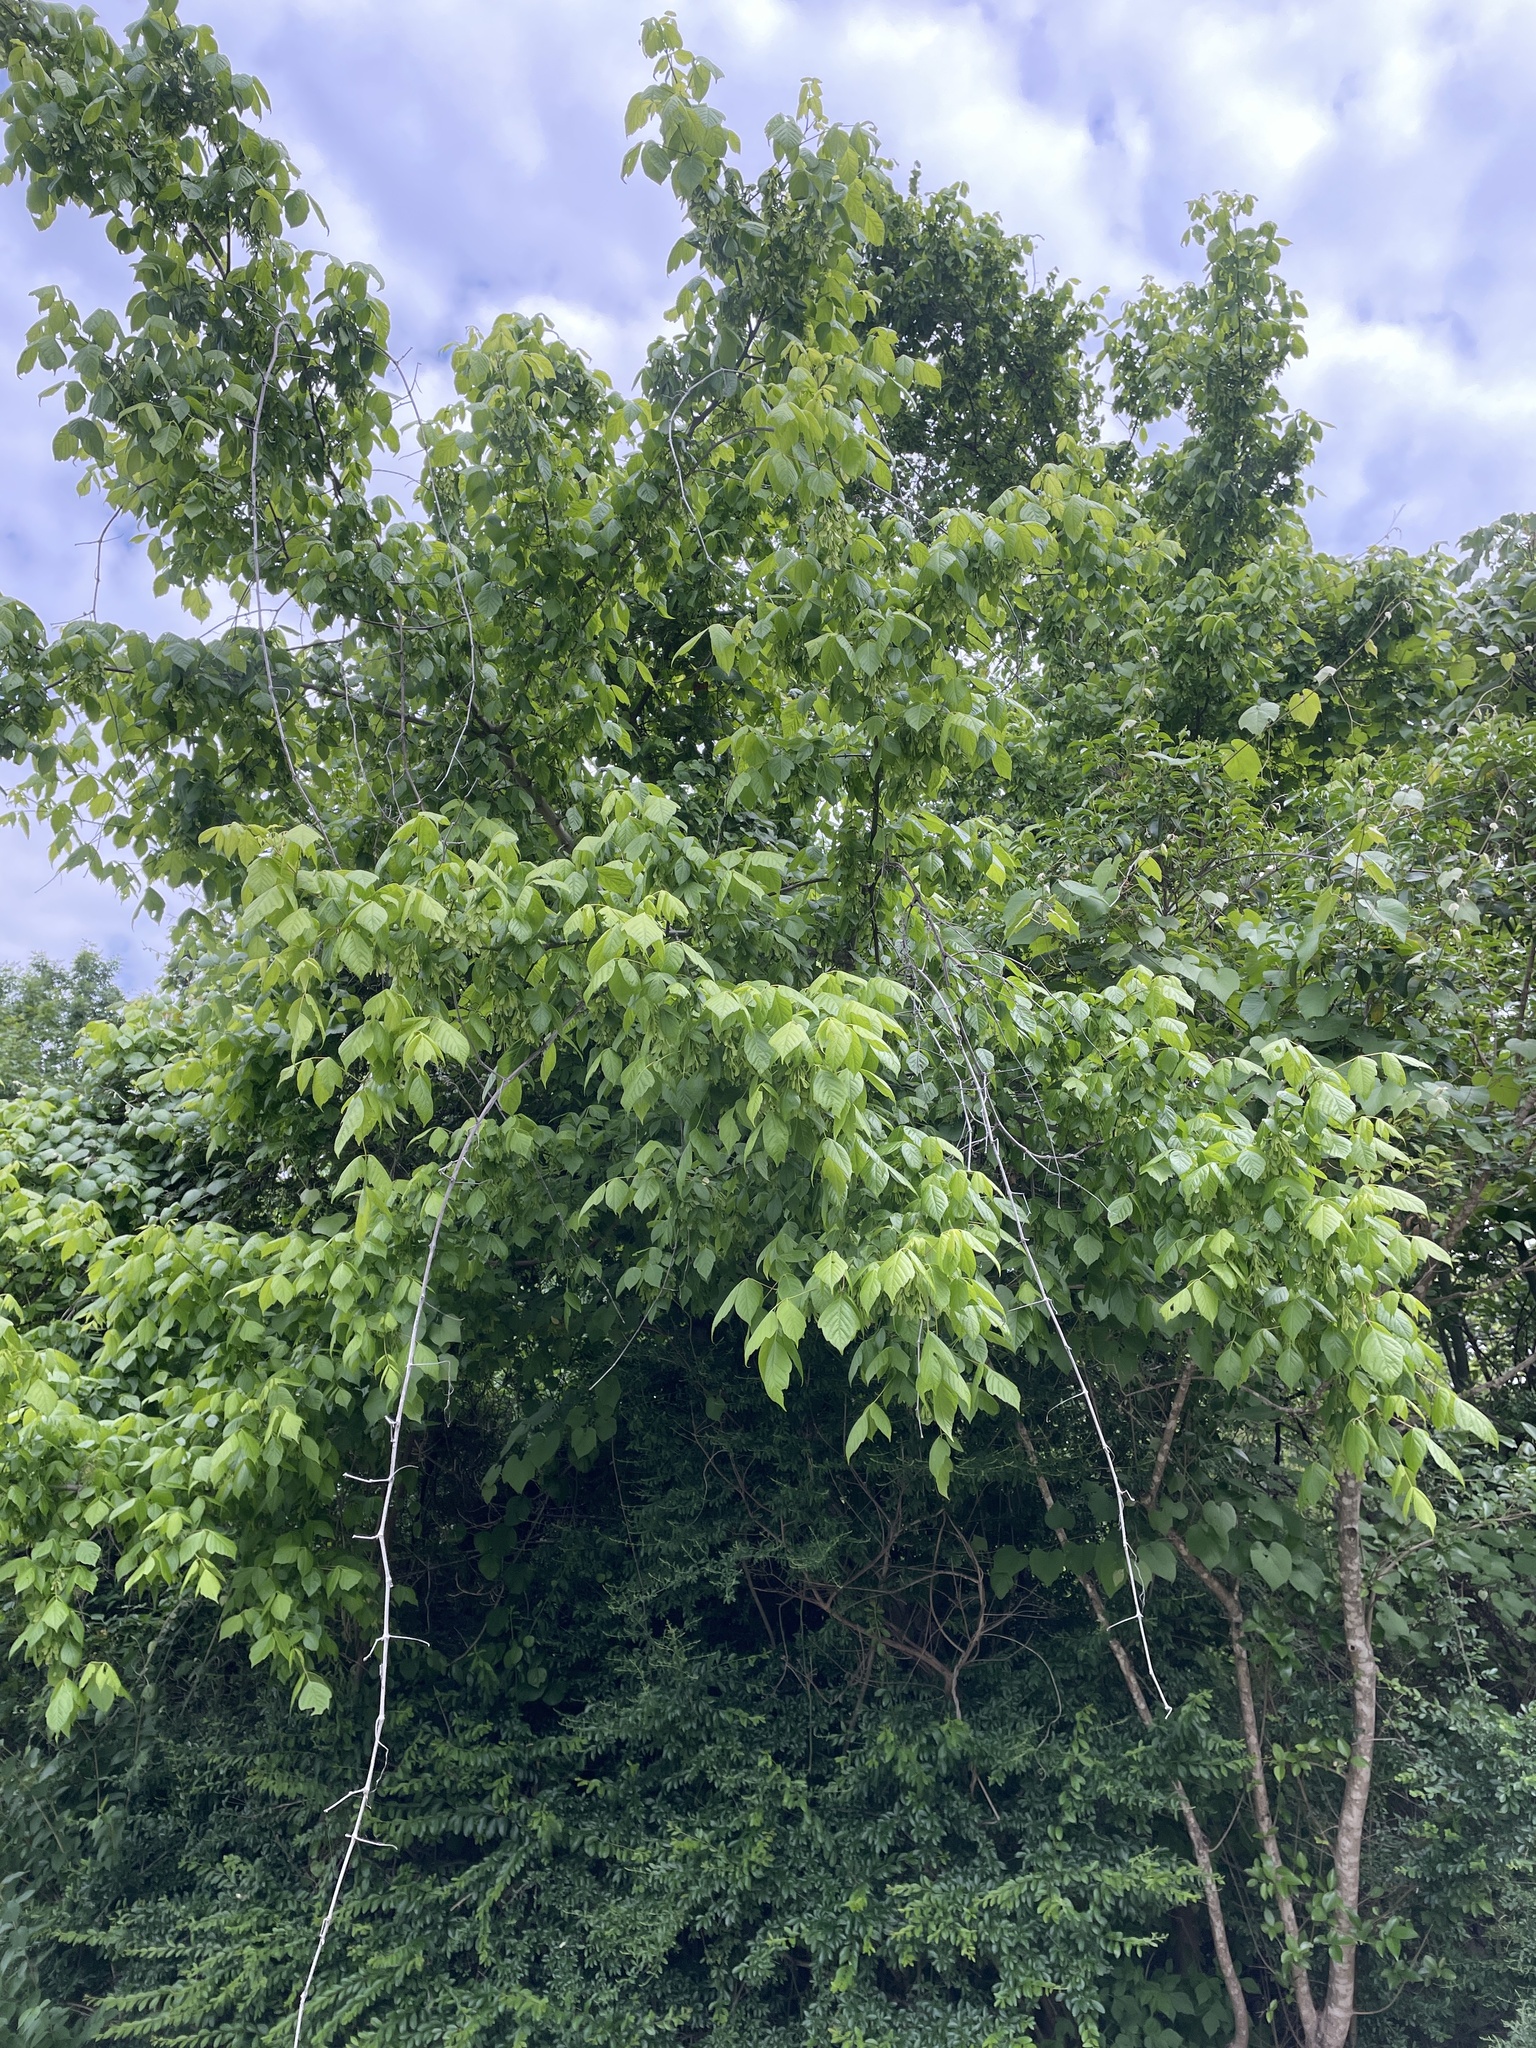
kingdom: Plantae
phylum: Tracheophyta
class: Magnoliopsida
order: Sapindales
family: Sapindaceae
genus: Acer
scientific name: Acer negundo
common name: Ashleaf maple
